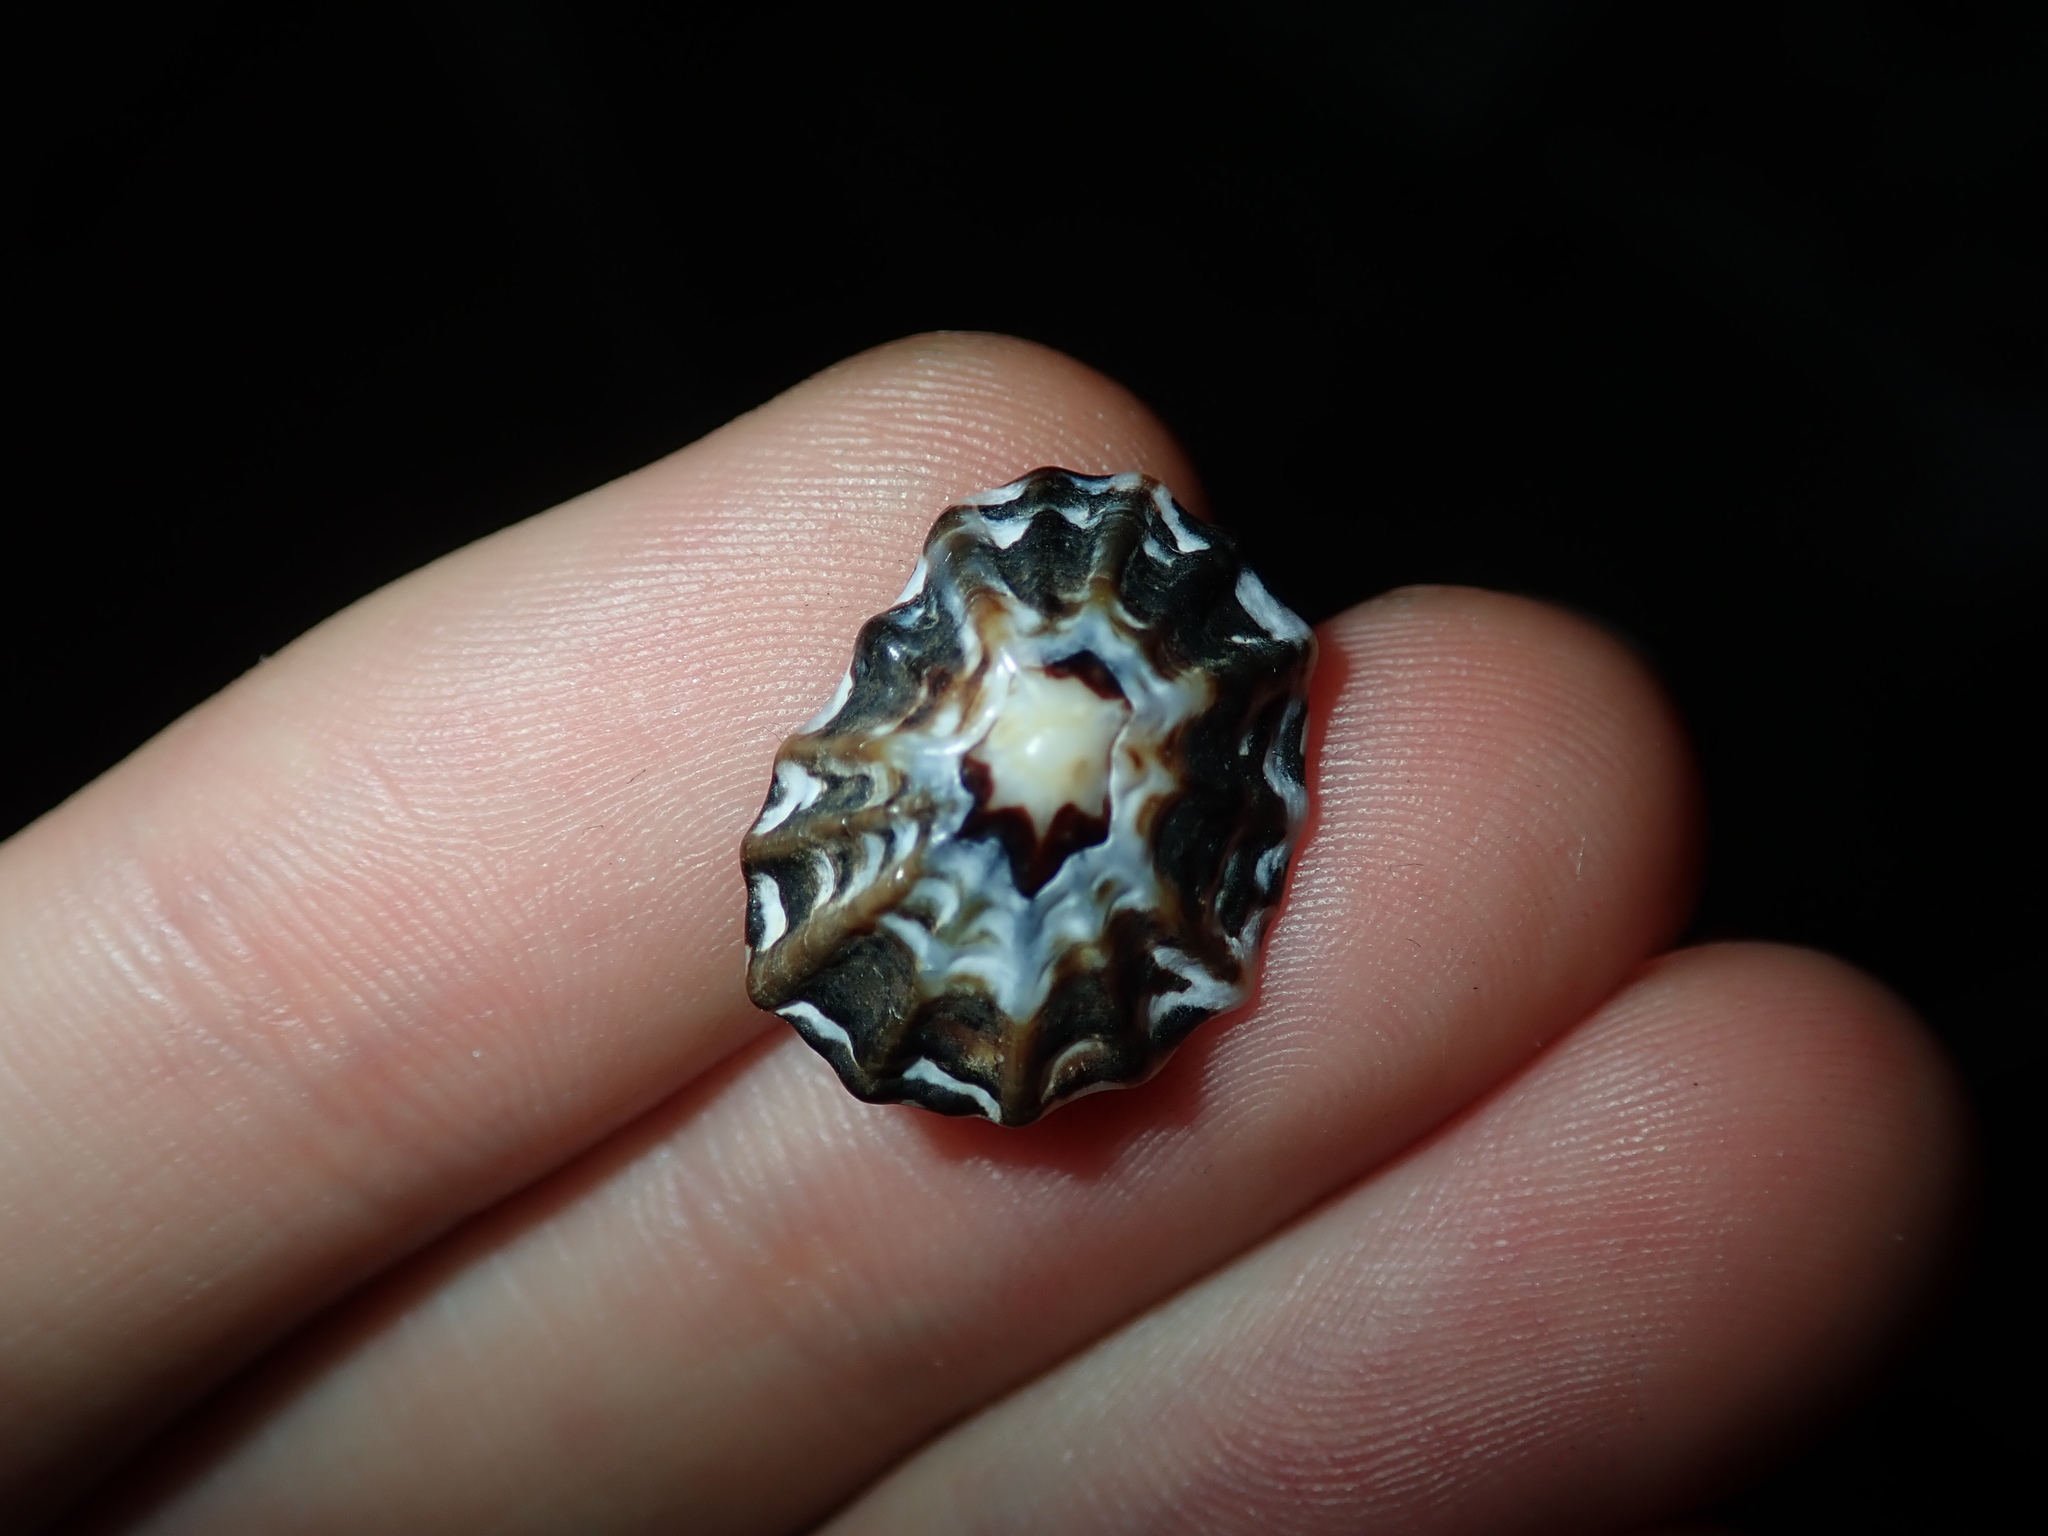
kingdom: Animalia
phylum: Mollusca
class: Gastropoda
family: Lottiidae
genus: Patelloida
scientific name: Patelloida alticostata
